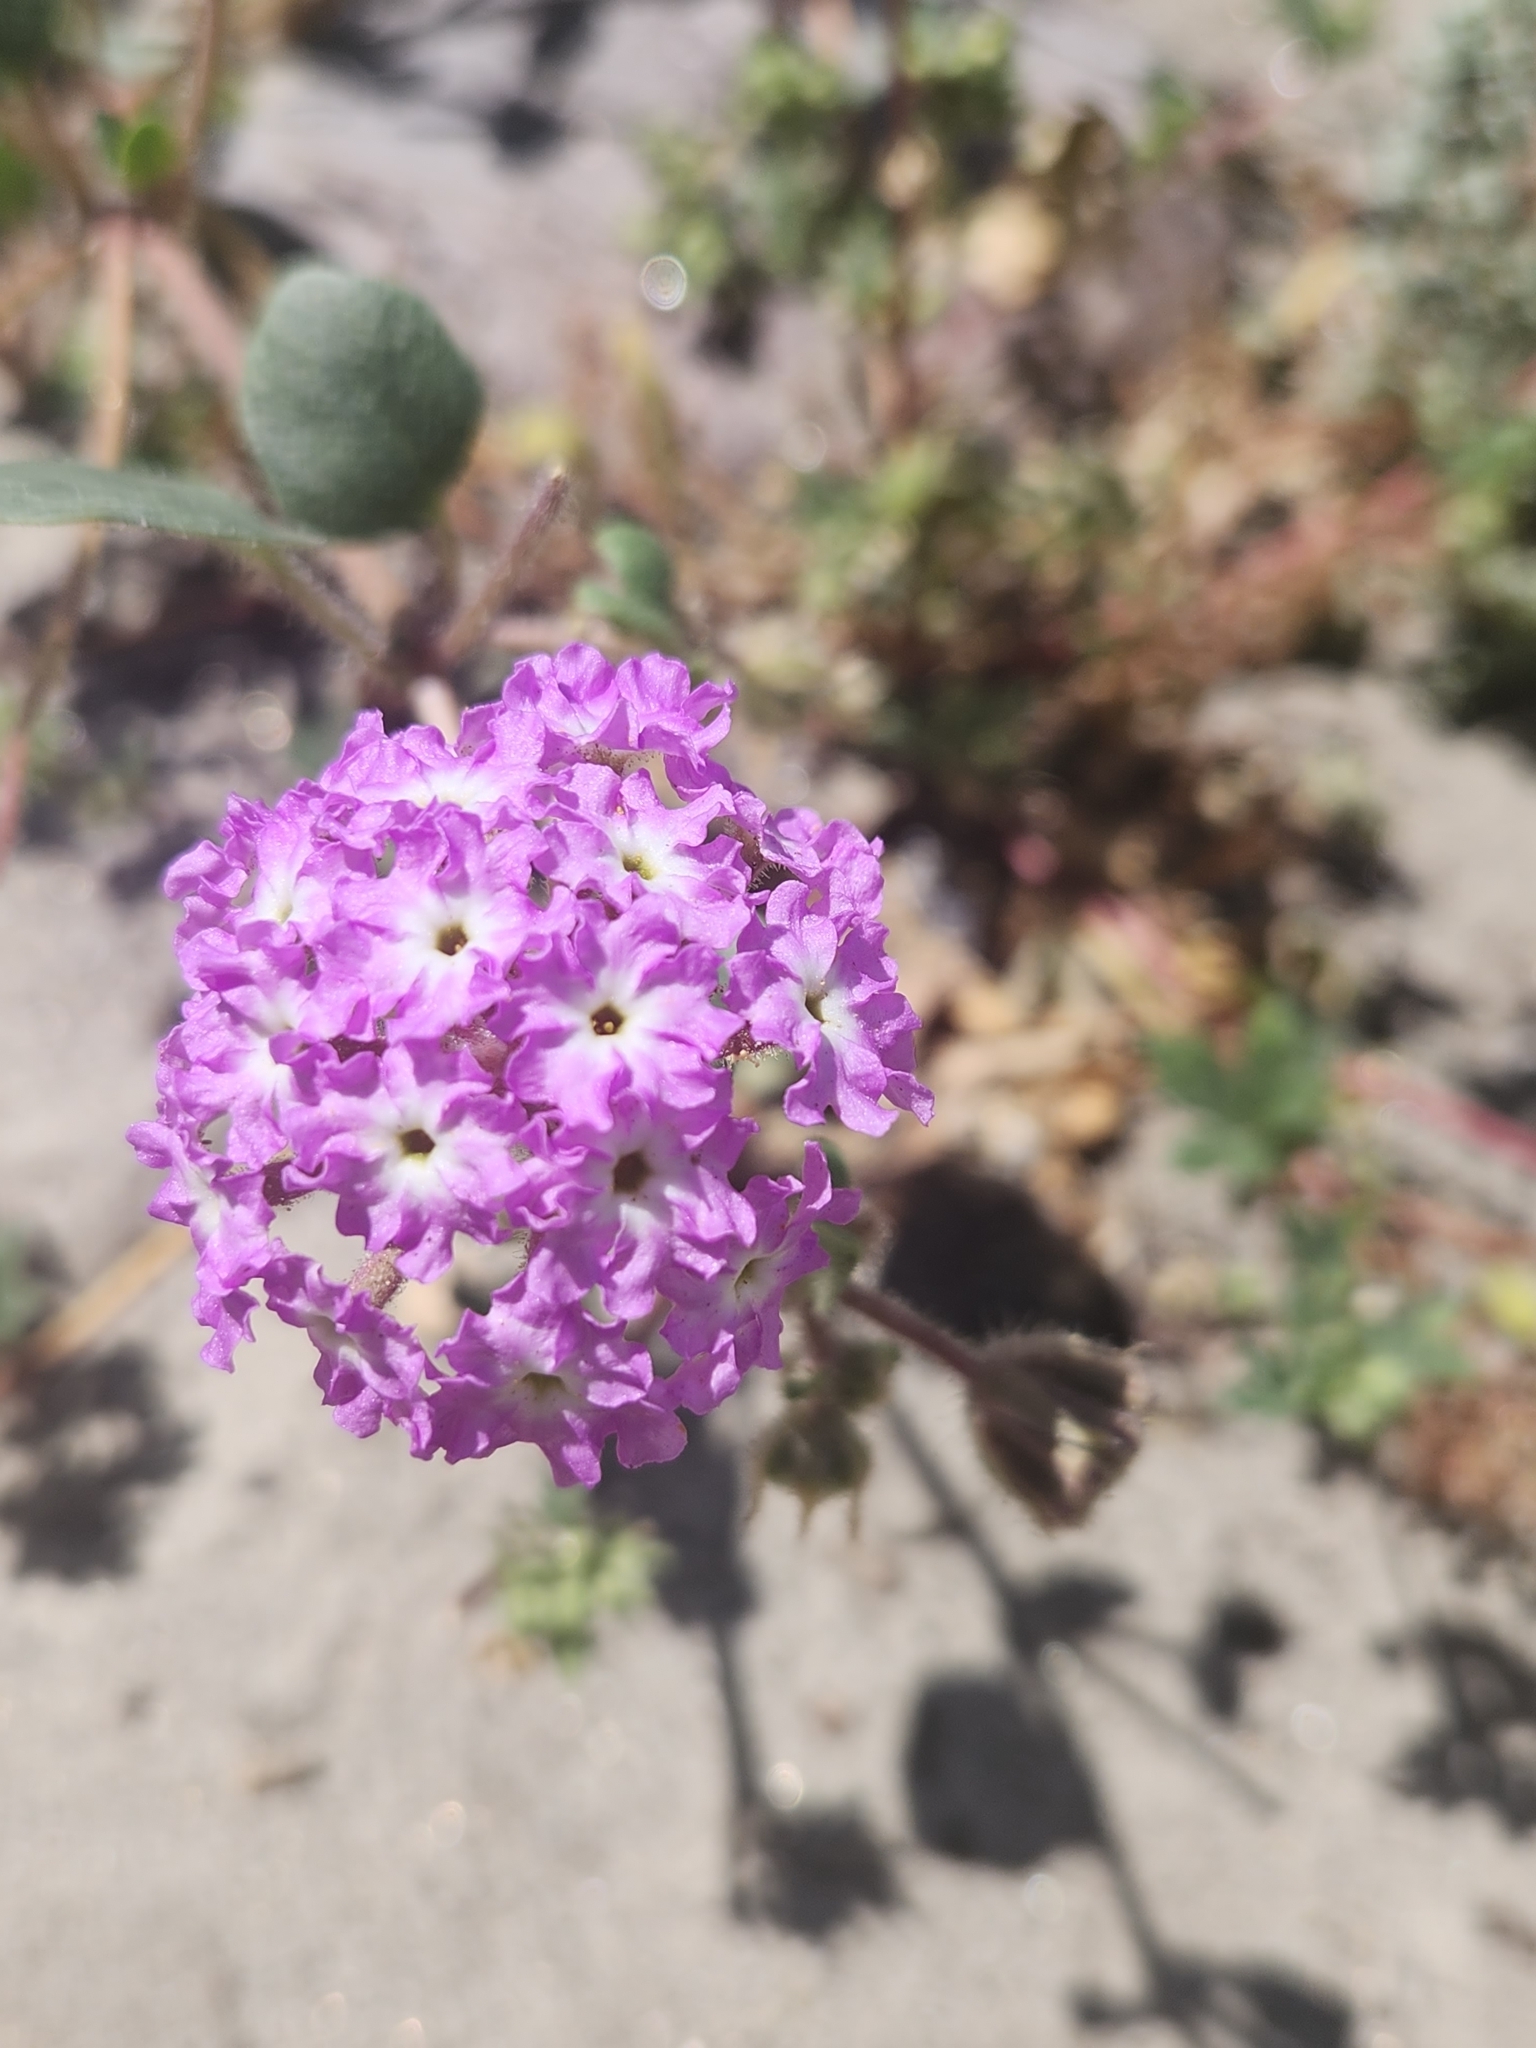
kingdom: Plantae
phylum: Tracheophyta
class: Magnoliopsida
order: Caryophyllales
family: Nyctaginaceae
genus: Abronia
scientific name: Abronia villosa
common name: Desert sand-verbena
